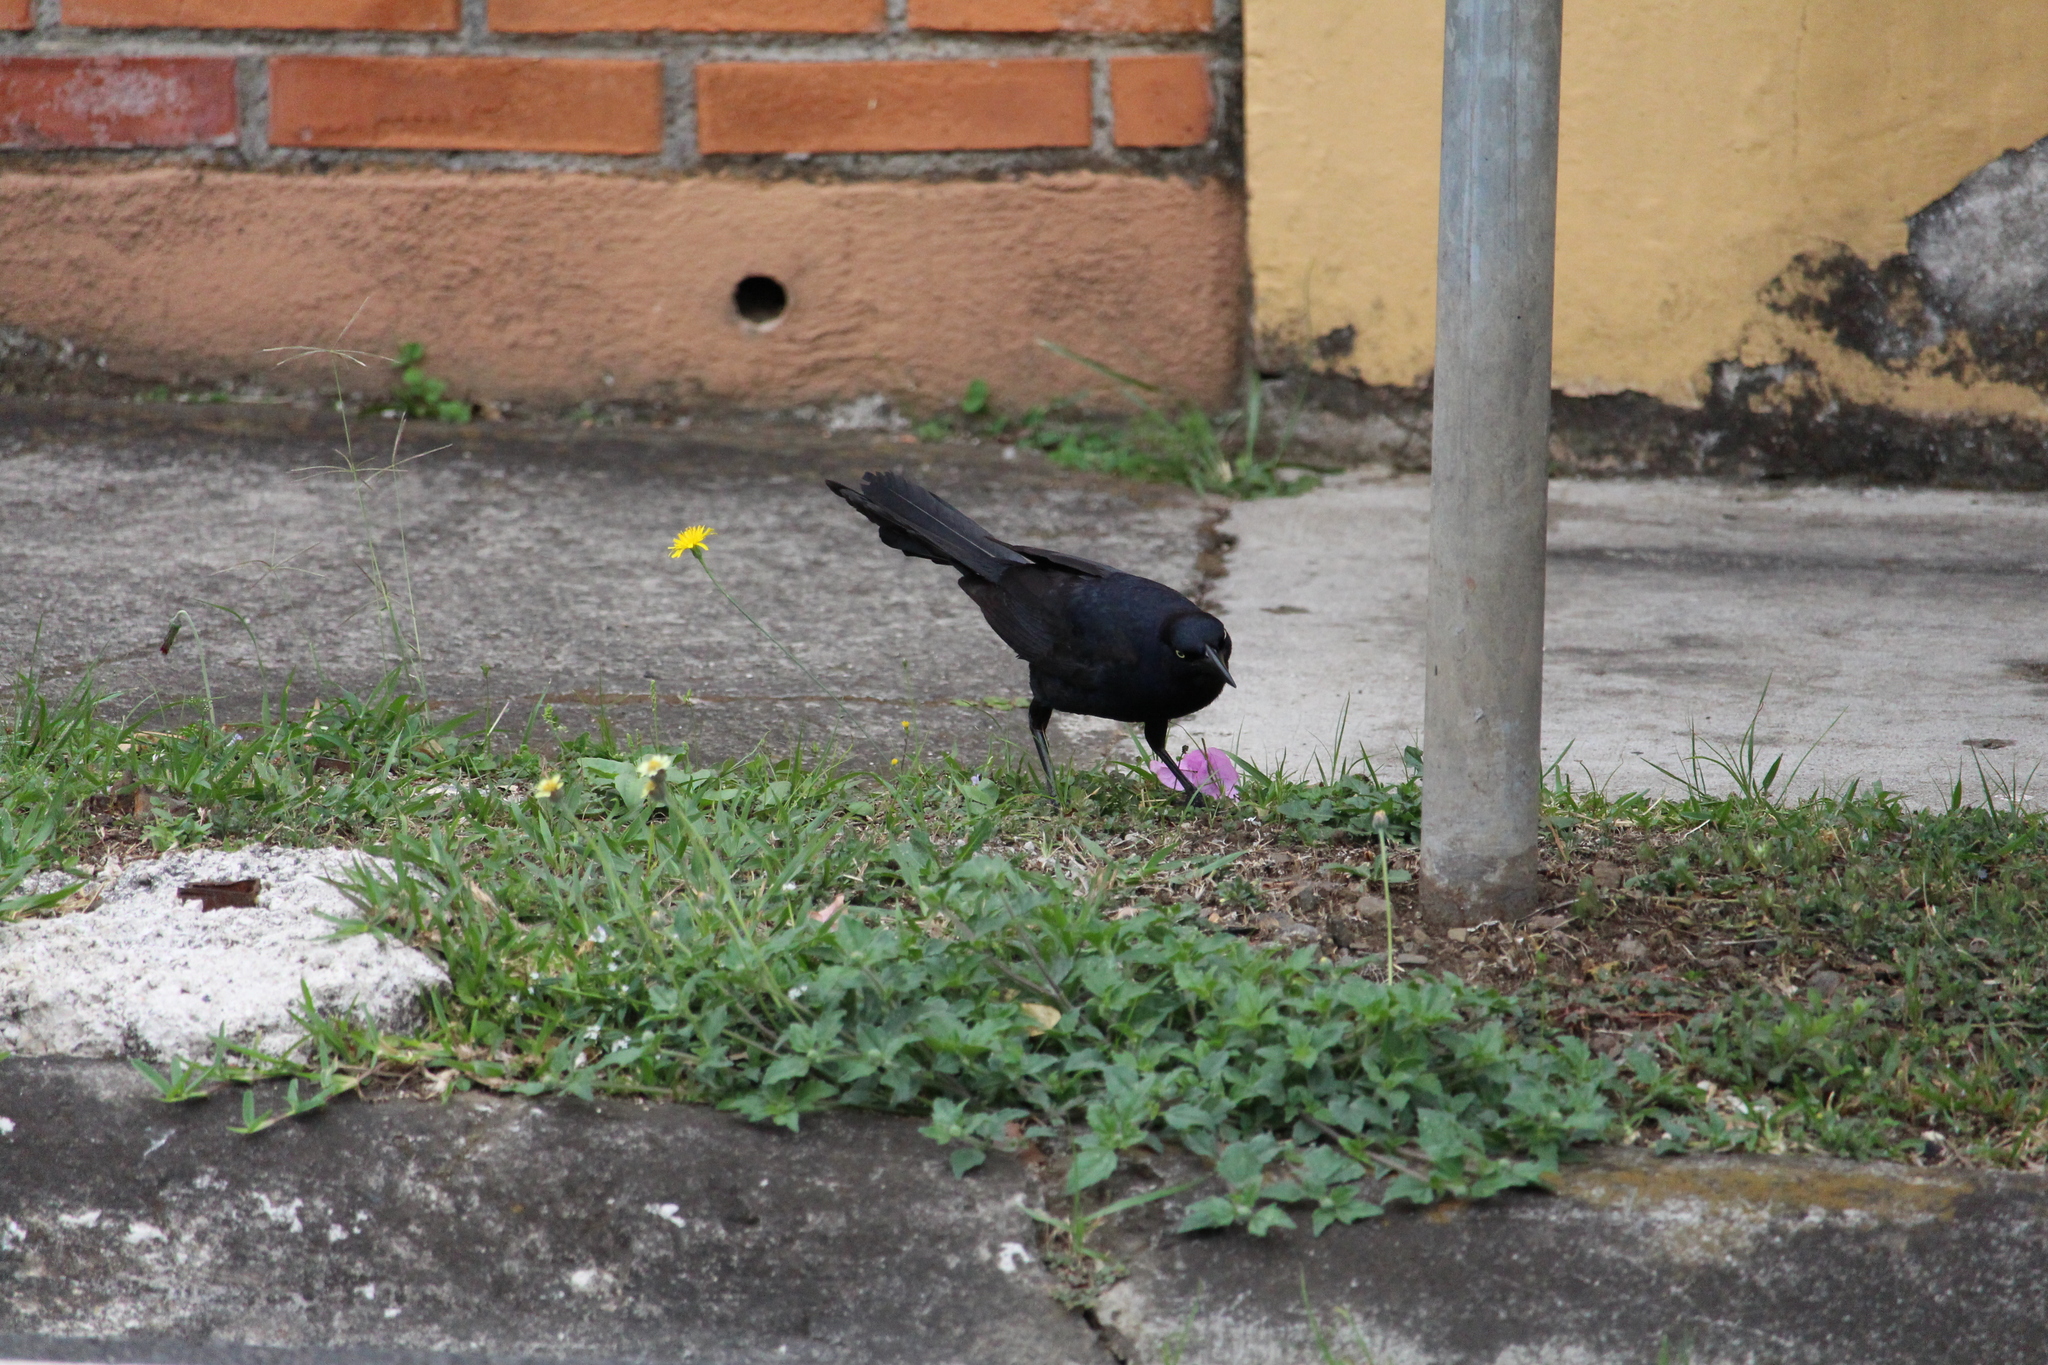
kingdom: Animalia
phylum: Chordata
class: Aves
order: Passeriformes
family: Icteridae
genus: Quiscalus
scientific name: Quiscalus mexicanus
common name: Great-tailed grackle
